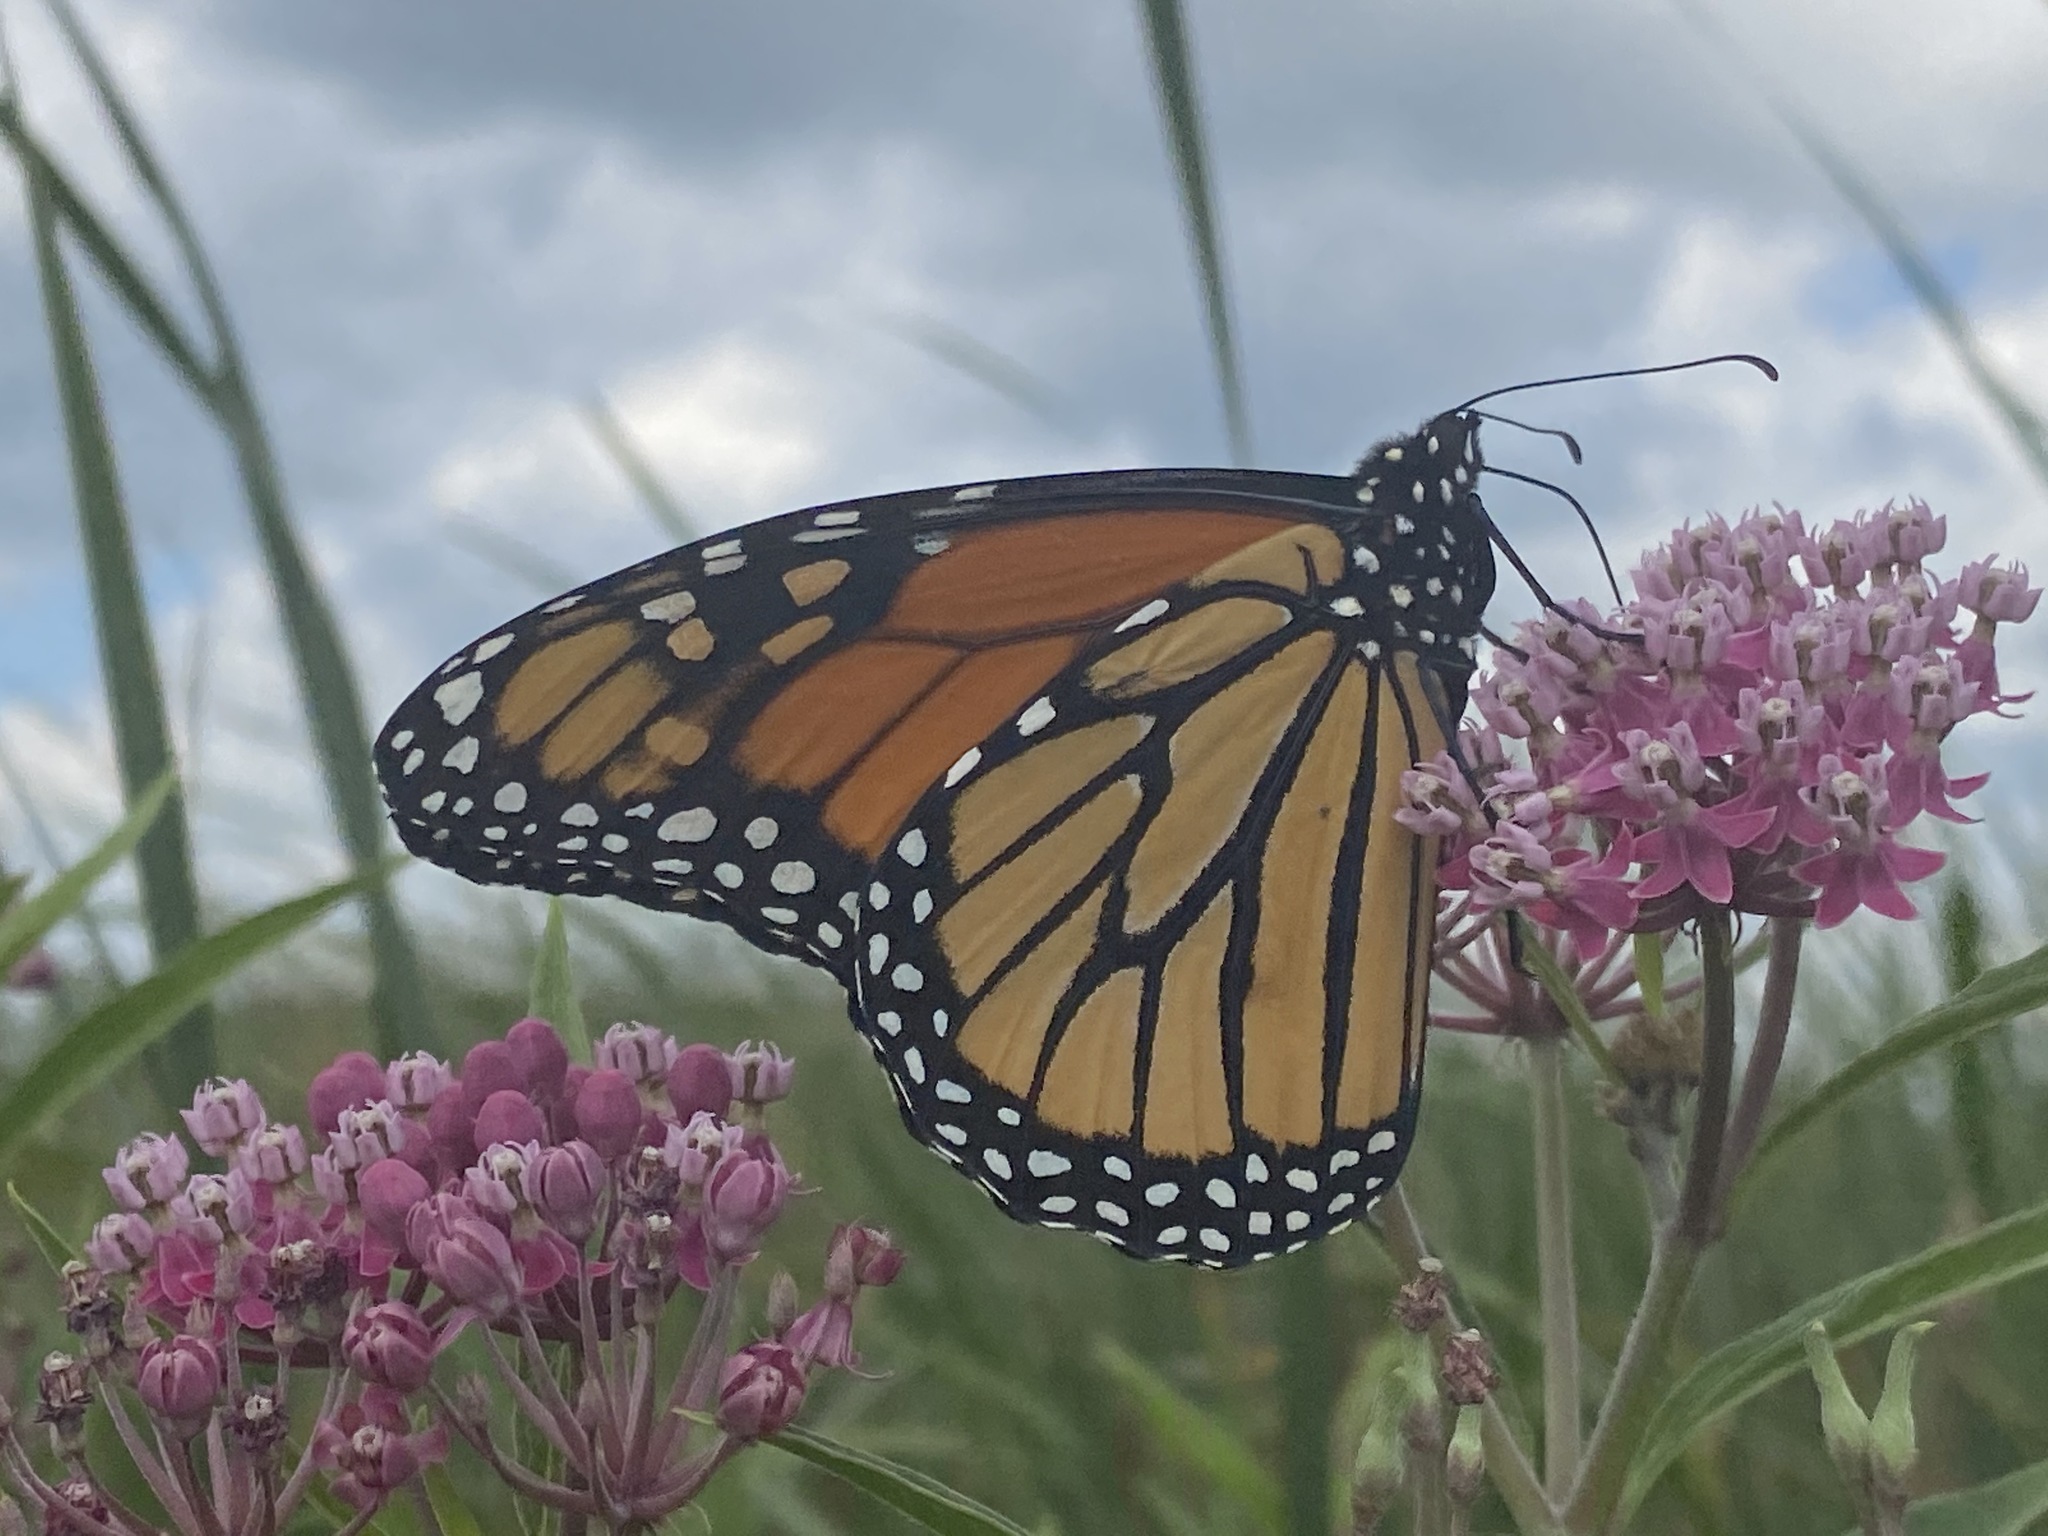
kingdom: Animalia
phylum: Arthropoda
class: Insecta
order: Lepidoptera
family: Nymphalidae
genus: Danaus
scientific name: Danaus plexippus
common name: Monarch
